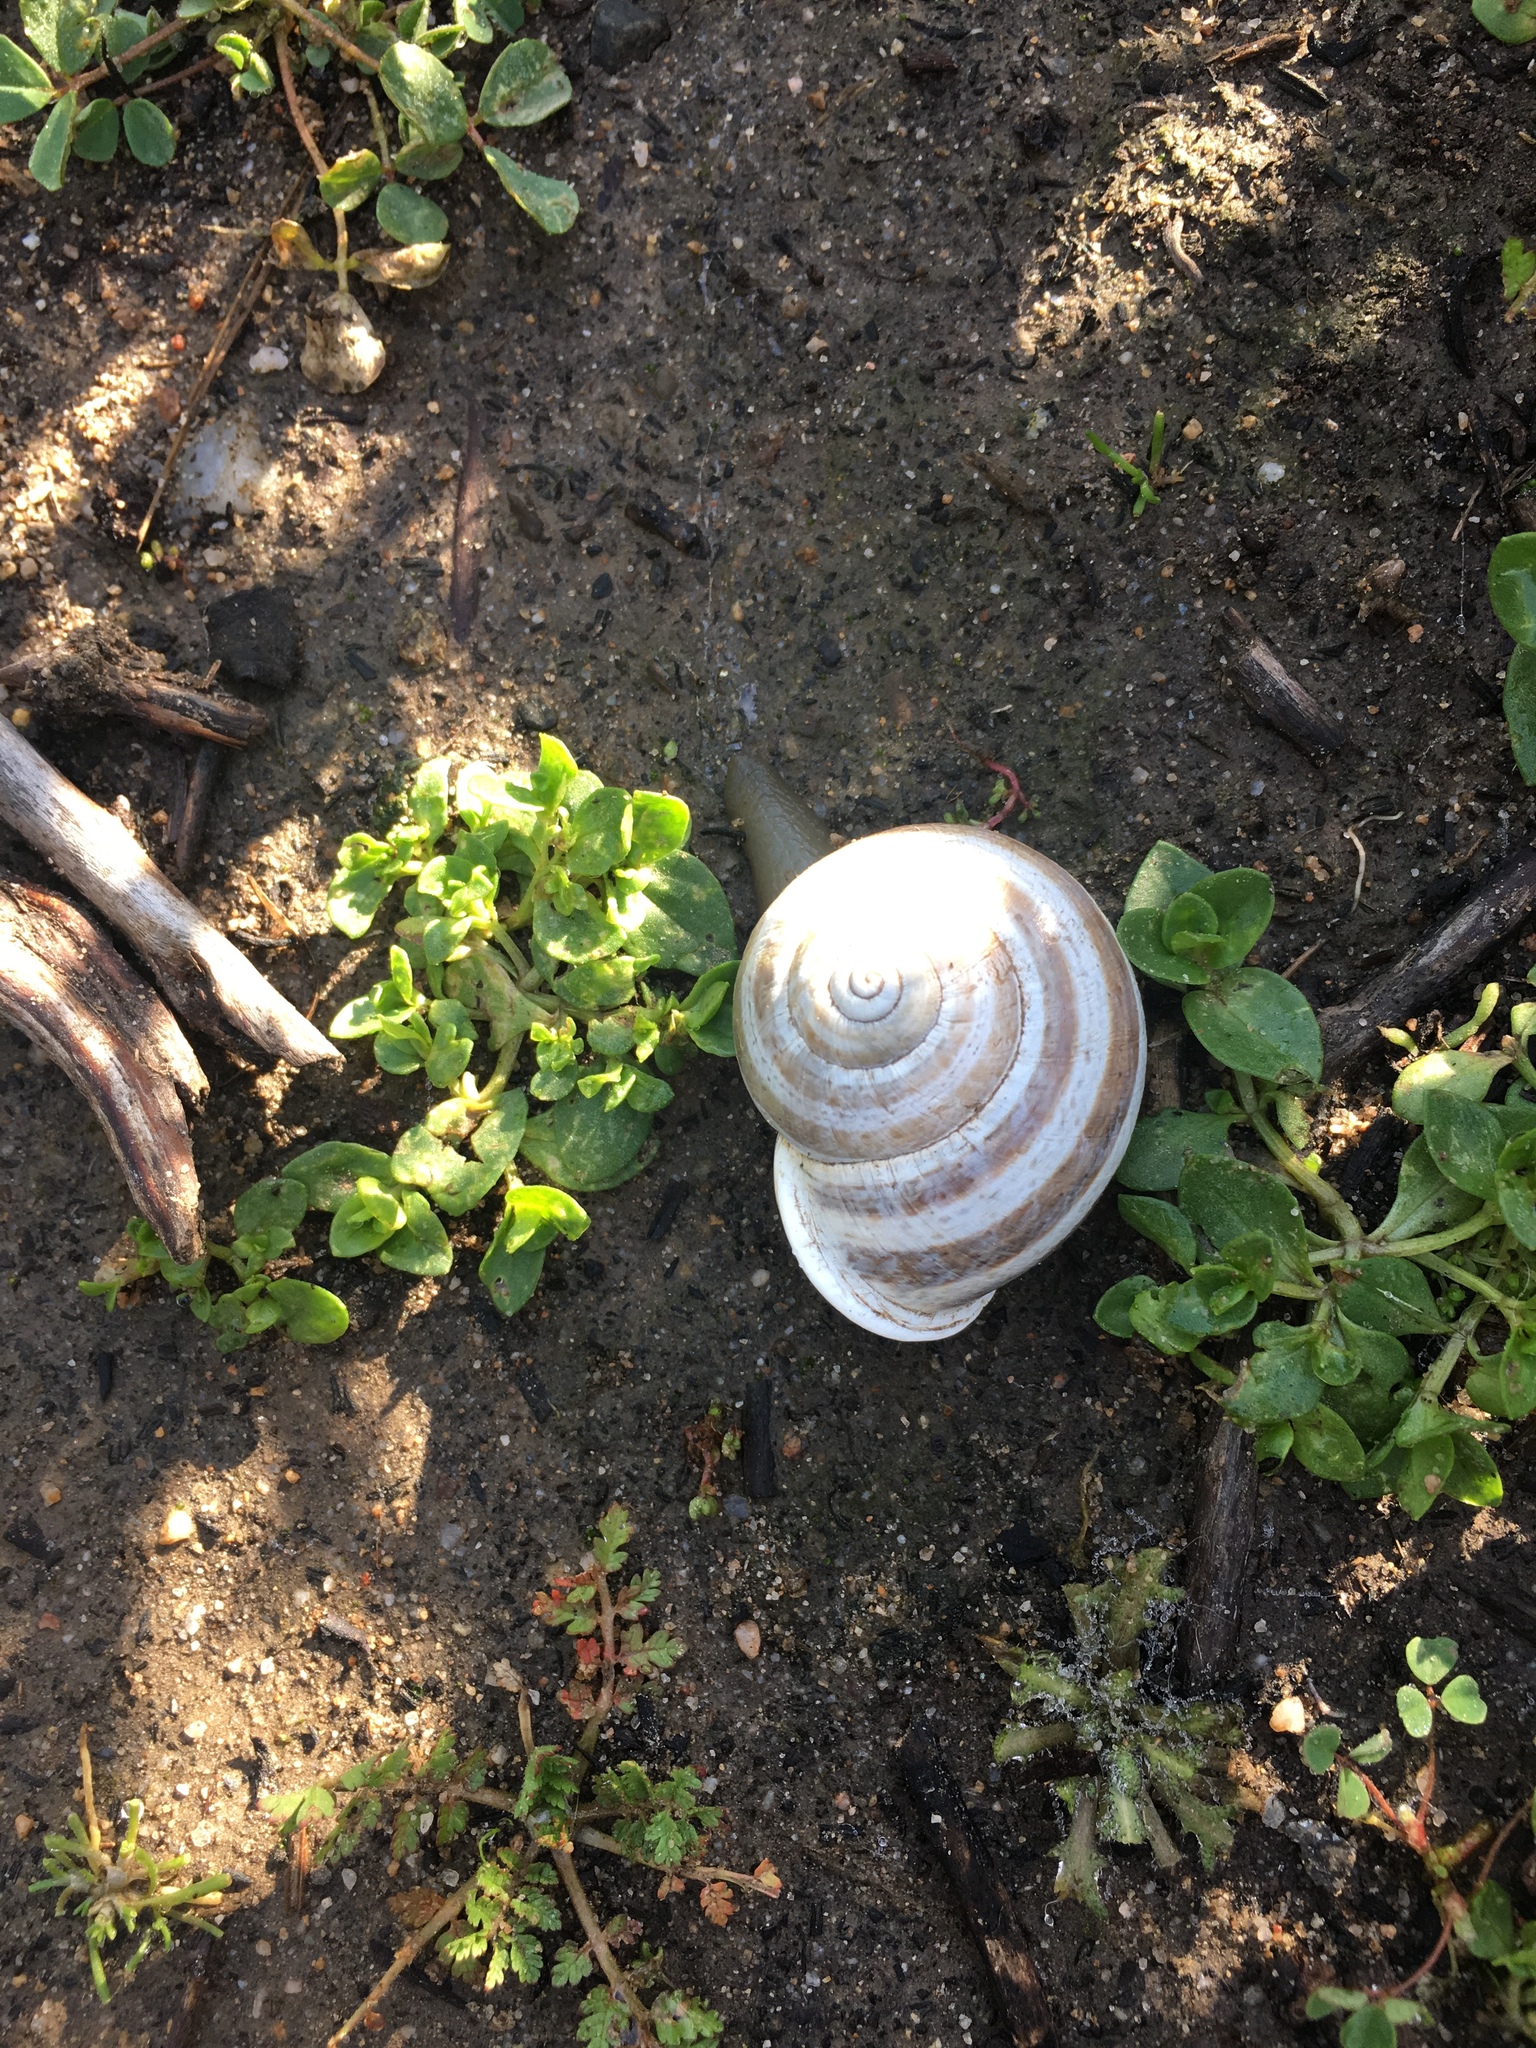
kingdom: Animalia
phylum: Mollusca
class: Gastropoda
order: Stylommatophora
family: Helicidae
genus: Otala
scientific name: Otala lactea
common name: Milk snail
